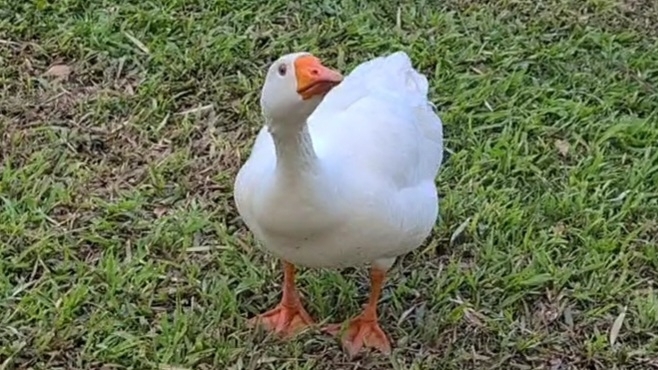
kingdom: Animalia
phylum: Chordata
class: Aves
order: Anseriformes
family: Anatidae
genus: Anser
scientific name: Anser anser
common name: Greylag goose
